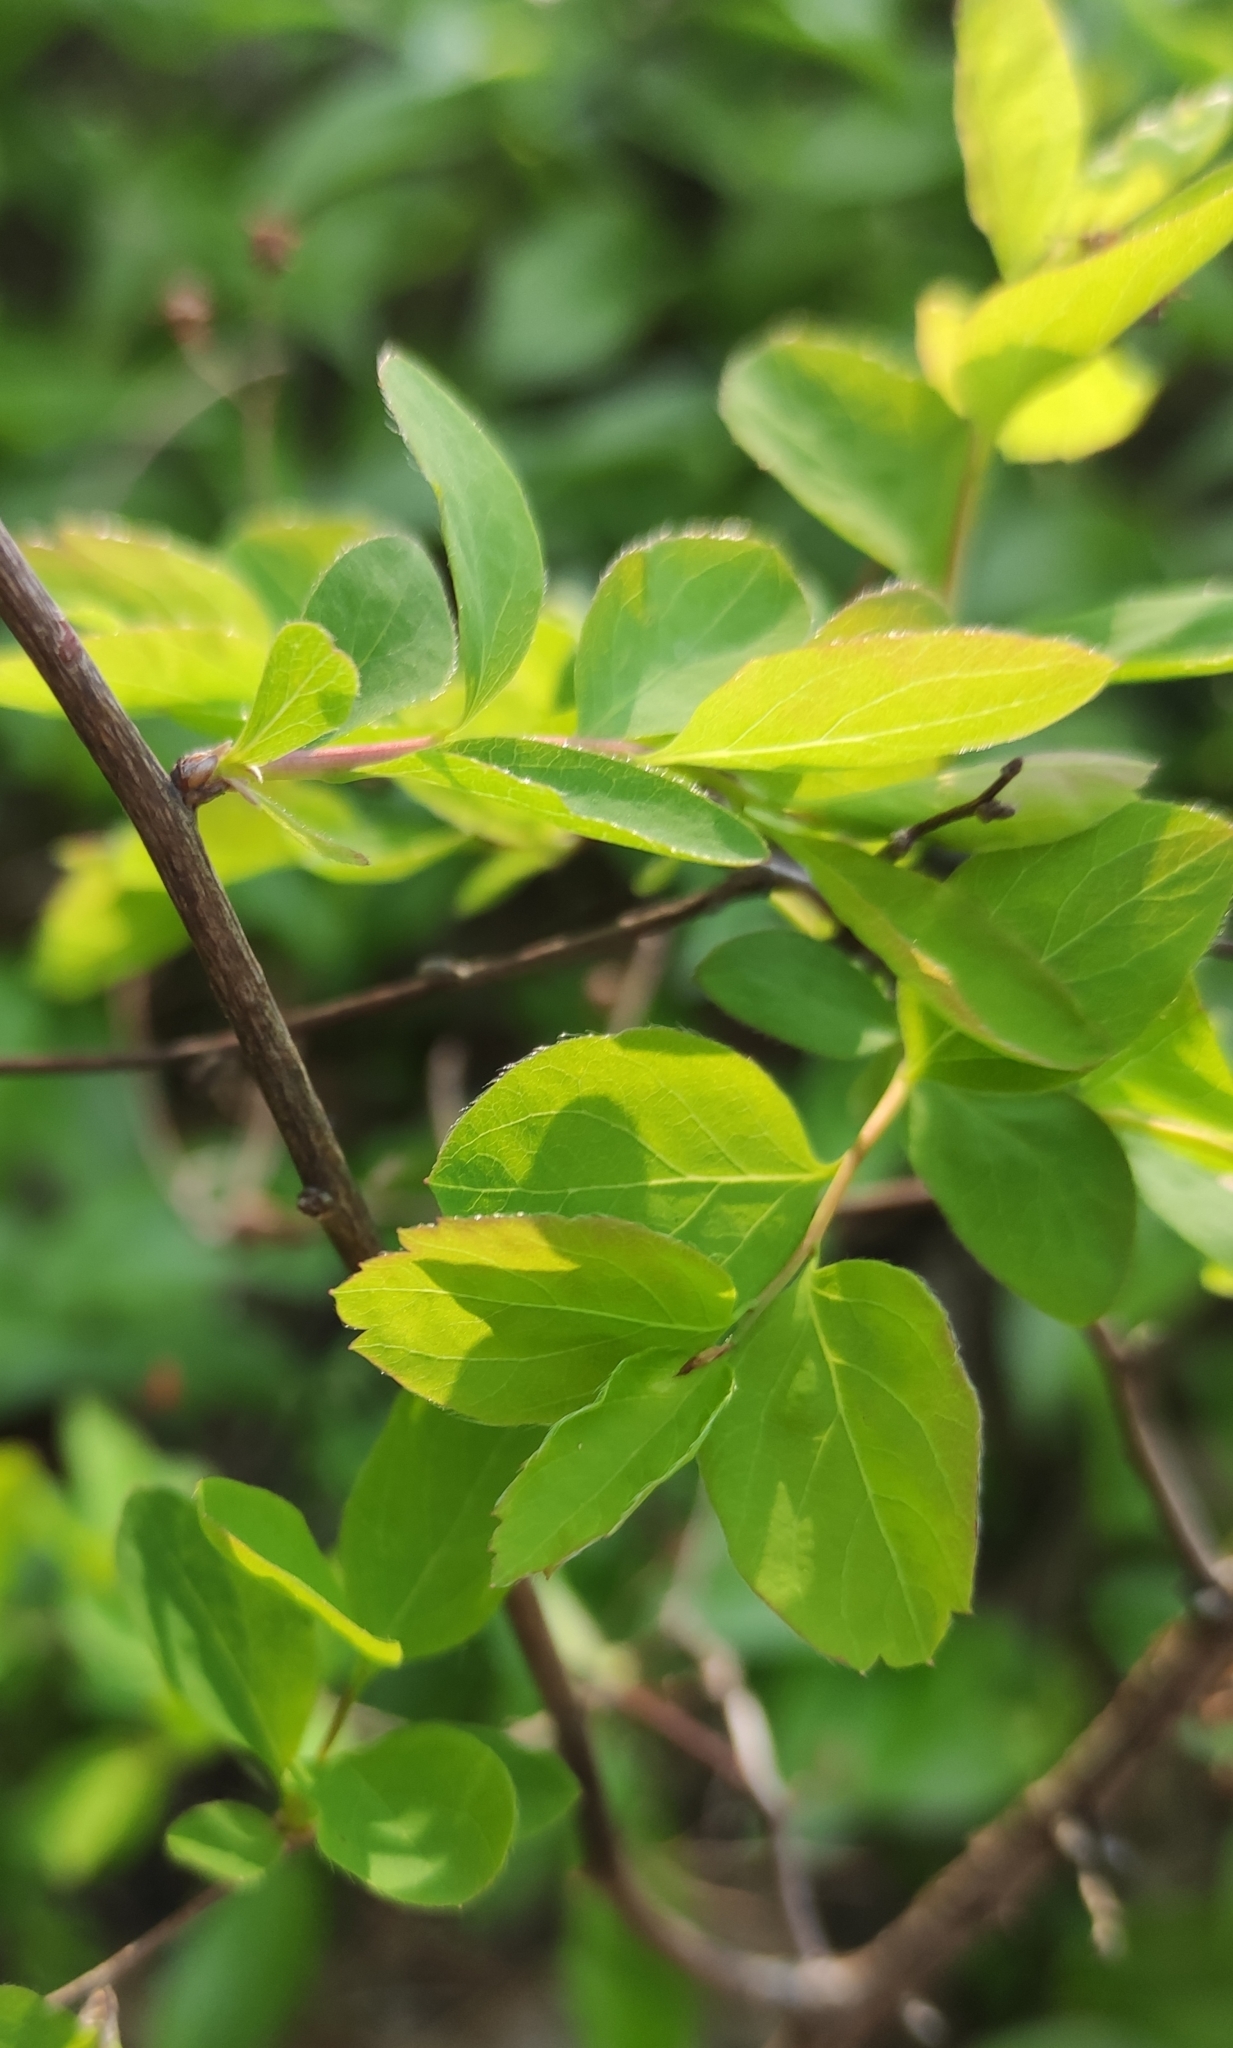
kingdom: Plantae
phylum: Tracheophyta
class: Magnoliopsida
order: Rosales
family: Rosaceae
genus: Spiraea
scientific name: Spiraea media
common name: Russian spiraea
